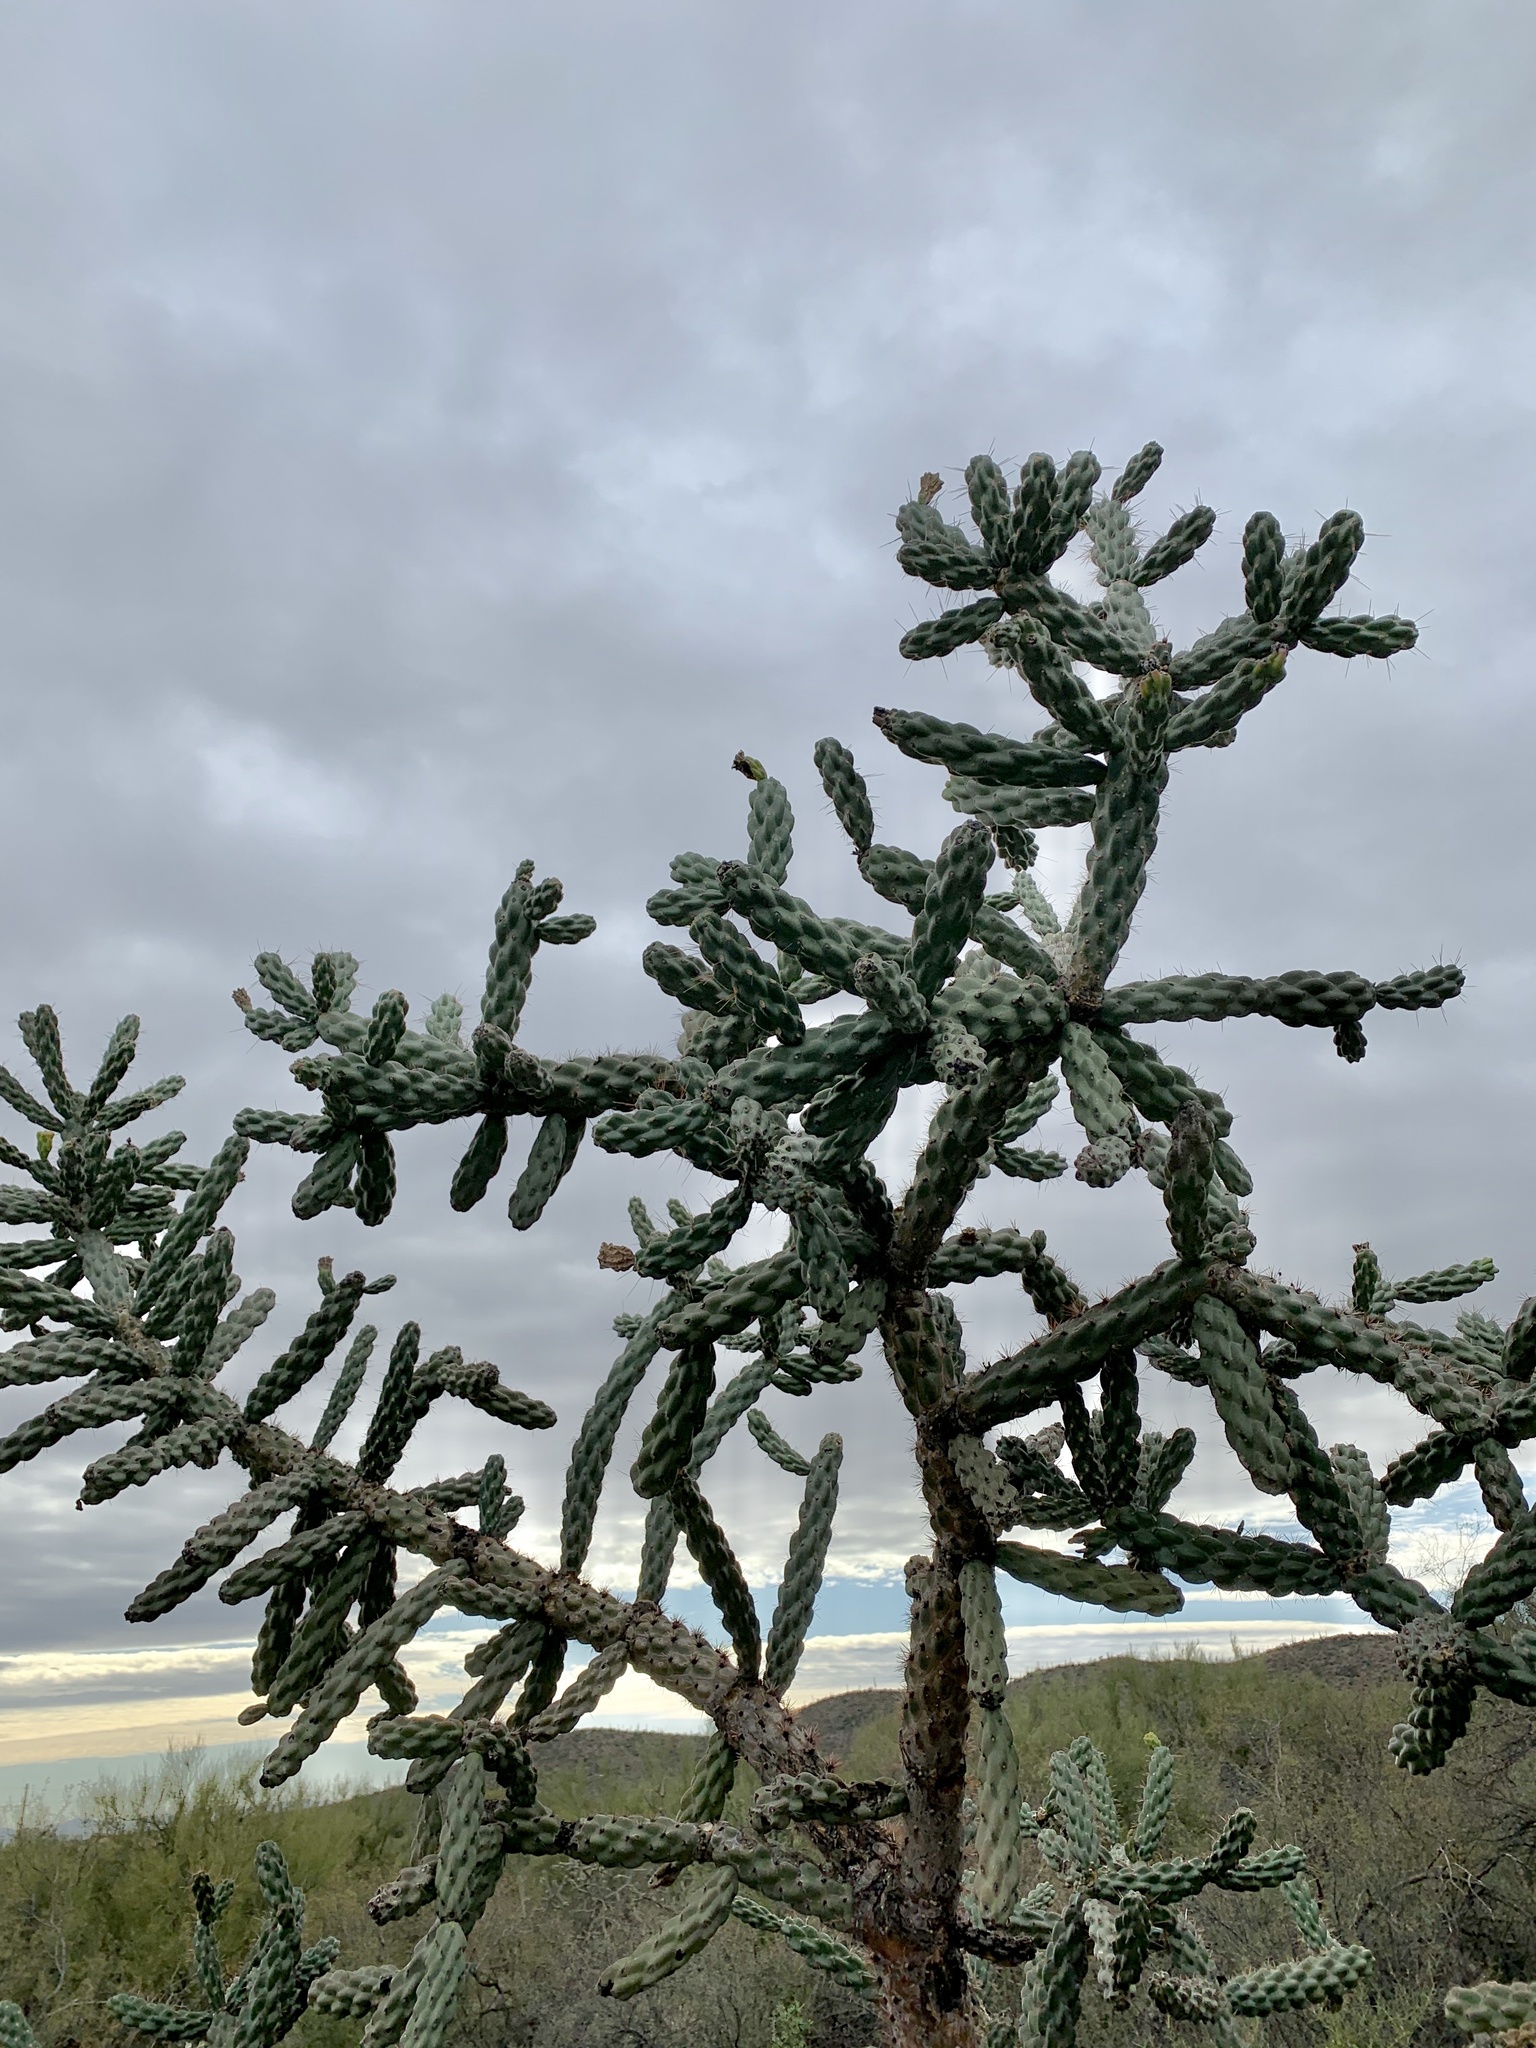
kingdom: Plantae
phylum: Tracheophyta
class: Magnoliopsida
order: Caryophyllales
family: Cactaceae
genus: Cylindropuntia
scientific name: Cylindropuntia fulgida
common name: Jumping cholla
